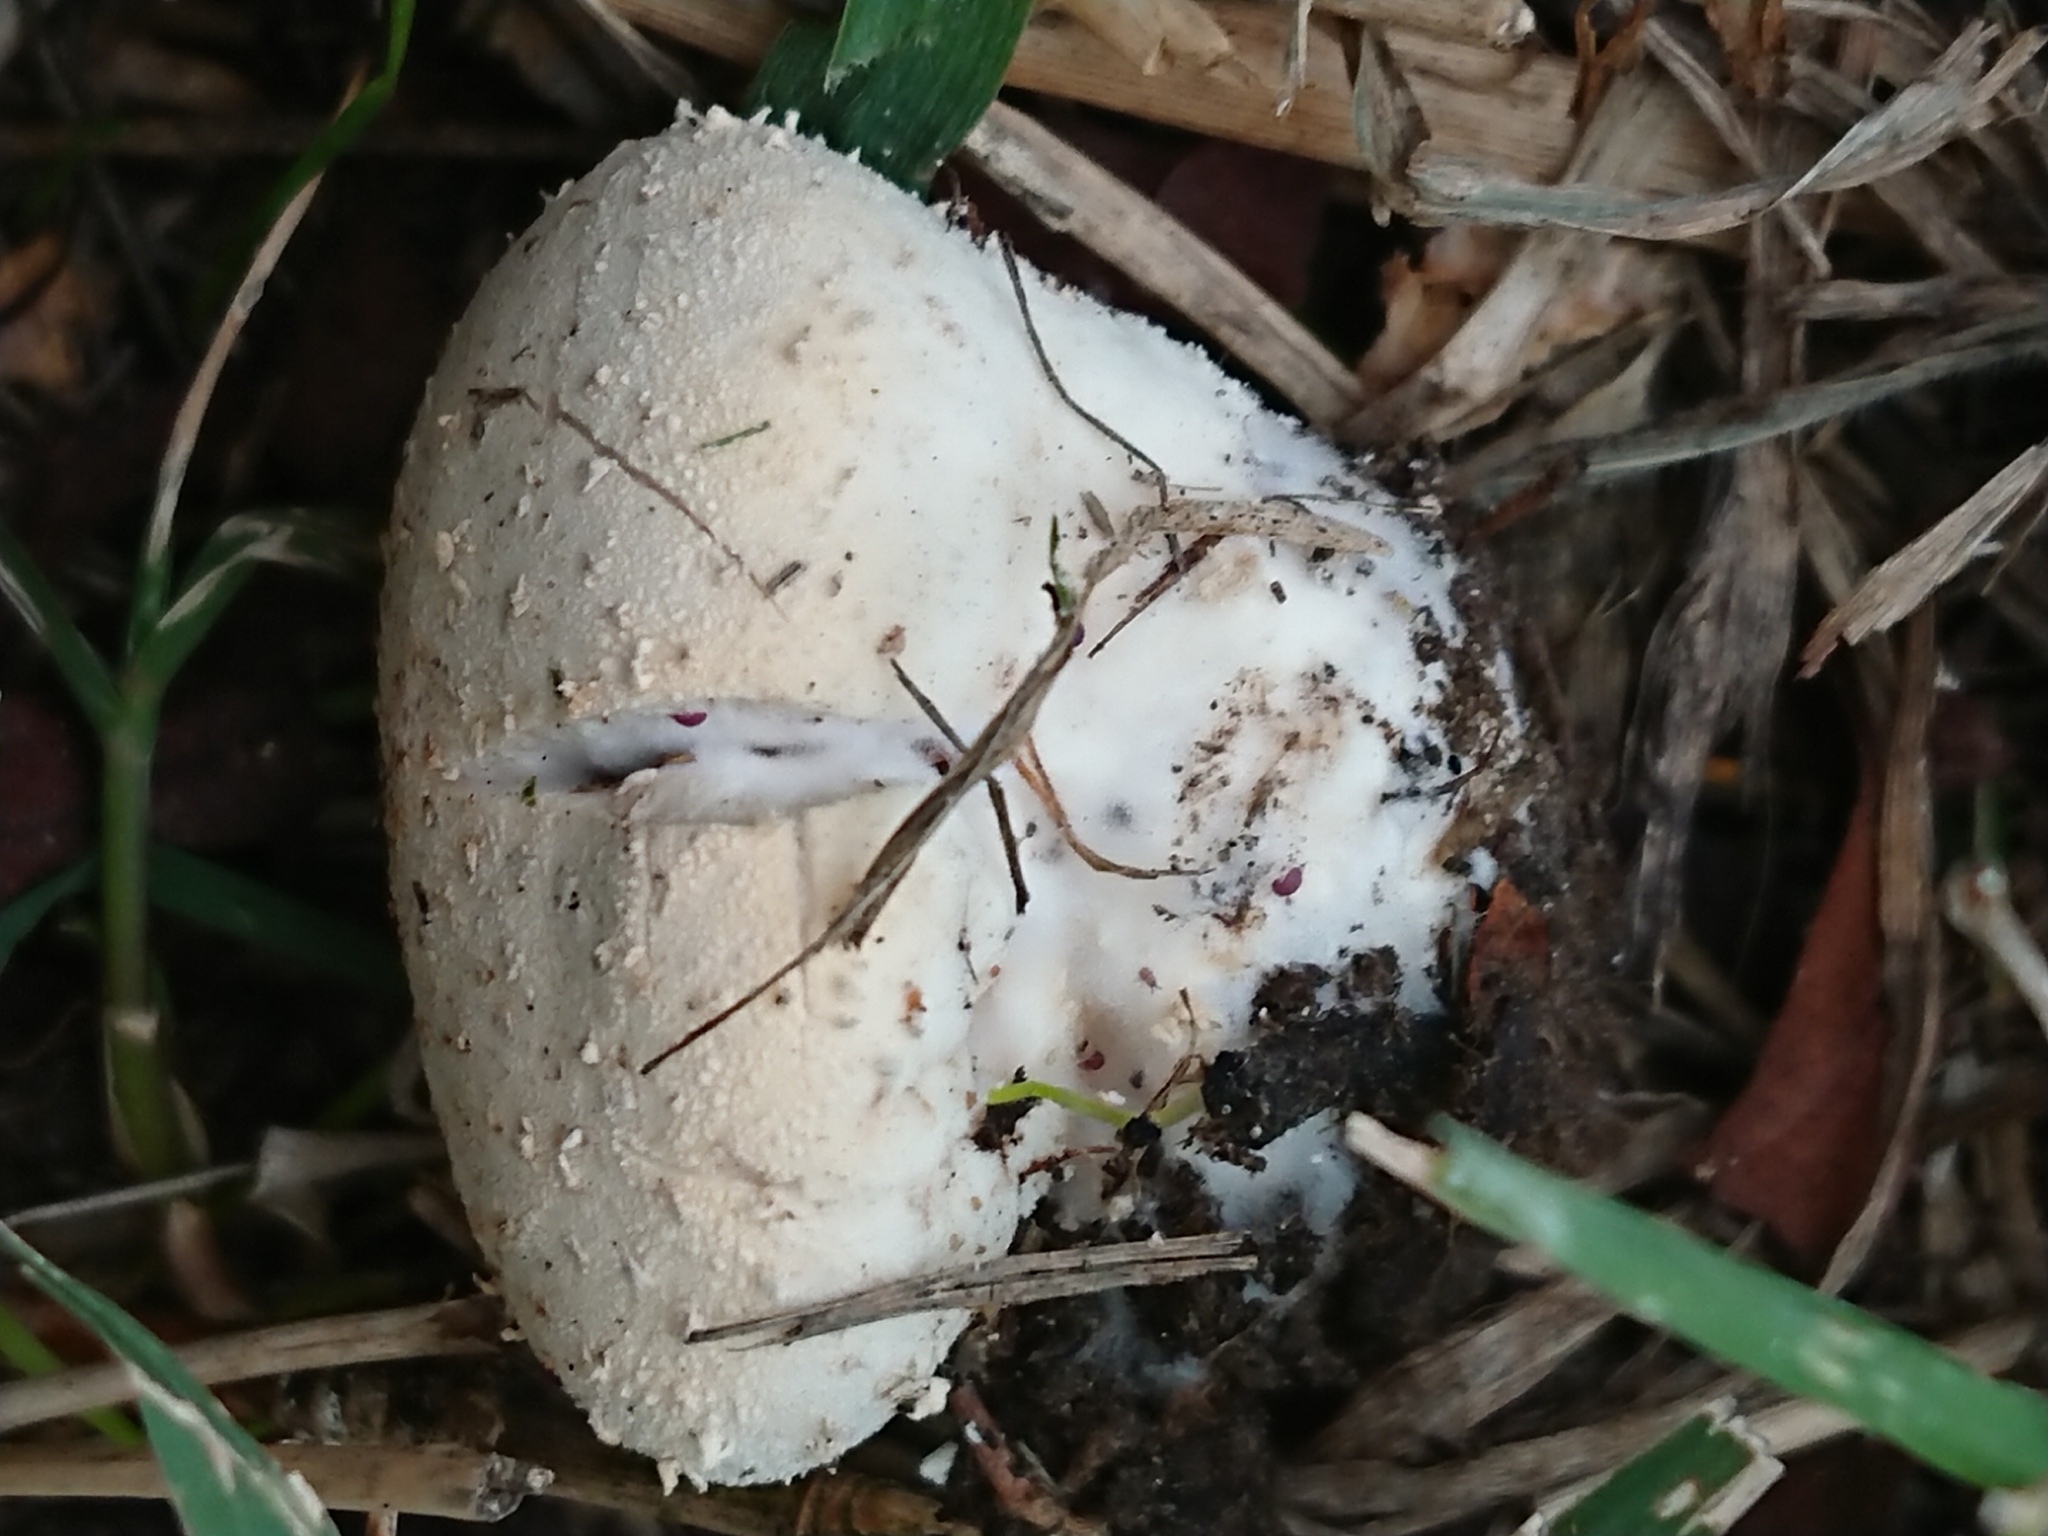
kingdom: Fungi
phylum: Basidiomycota
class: Agaricomycetes
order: Agaricales
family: Lycoperdaceae
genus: Lycoperdon
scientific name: Lycoperdon pratense
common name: Meadow puffball
